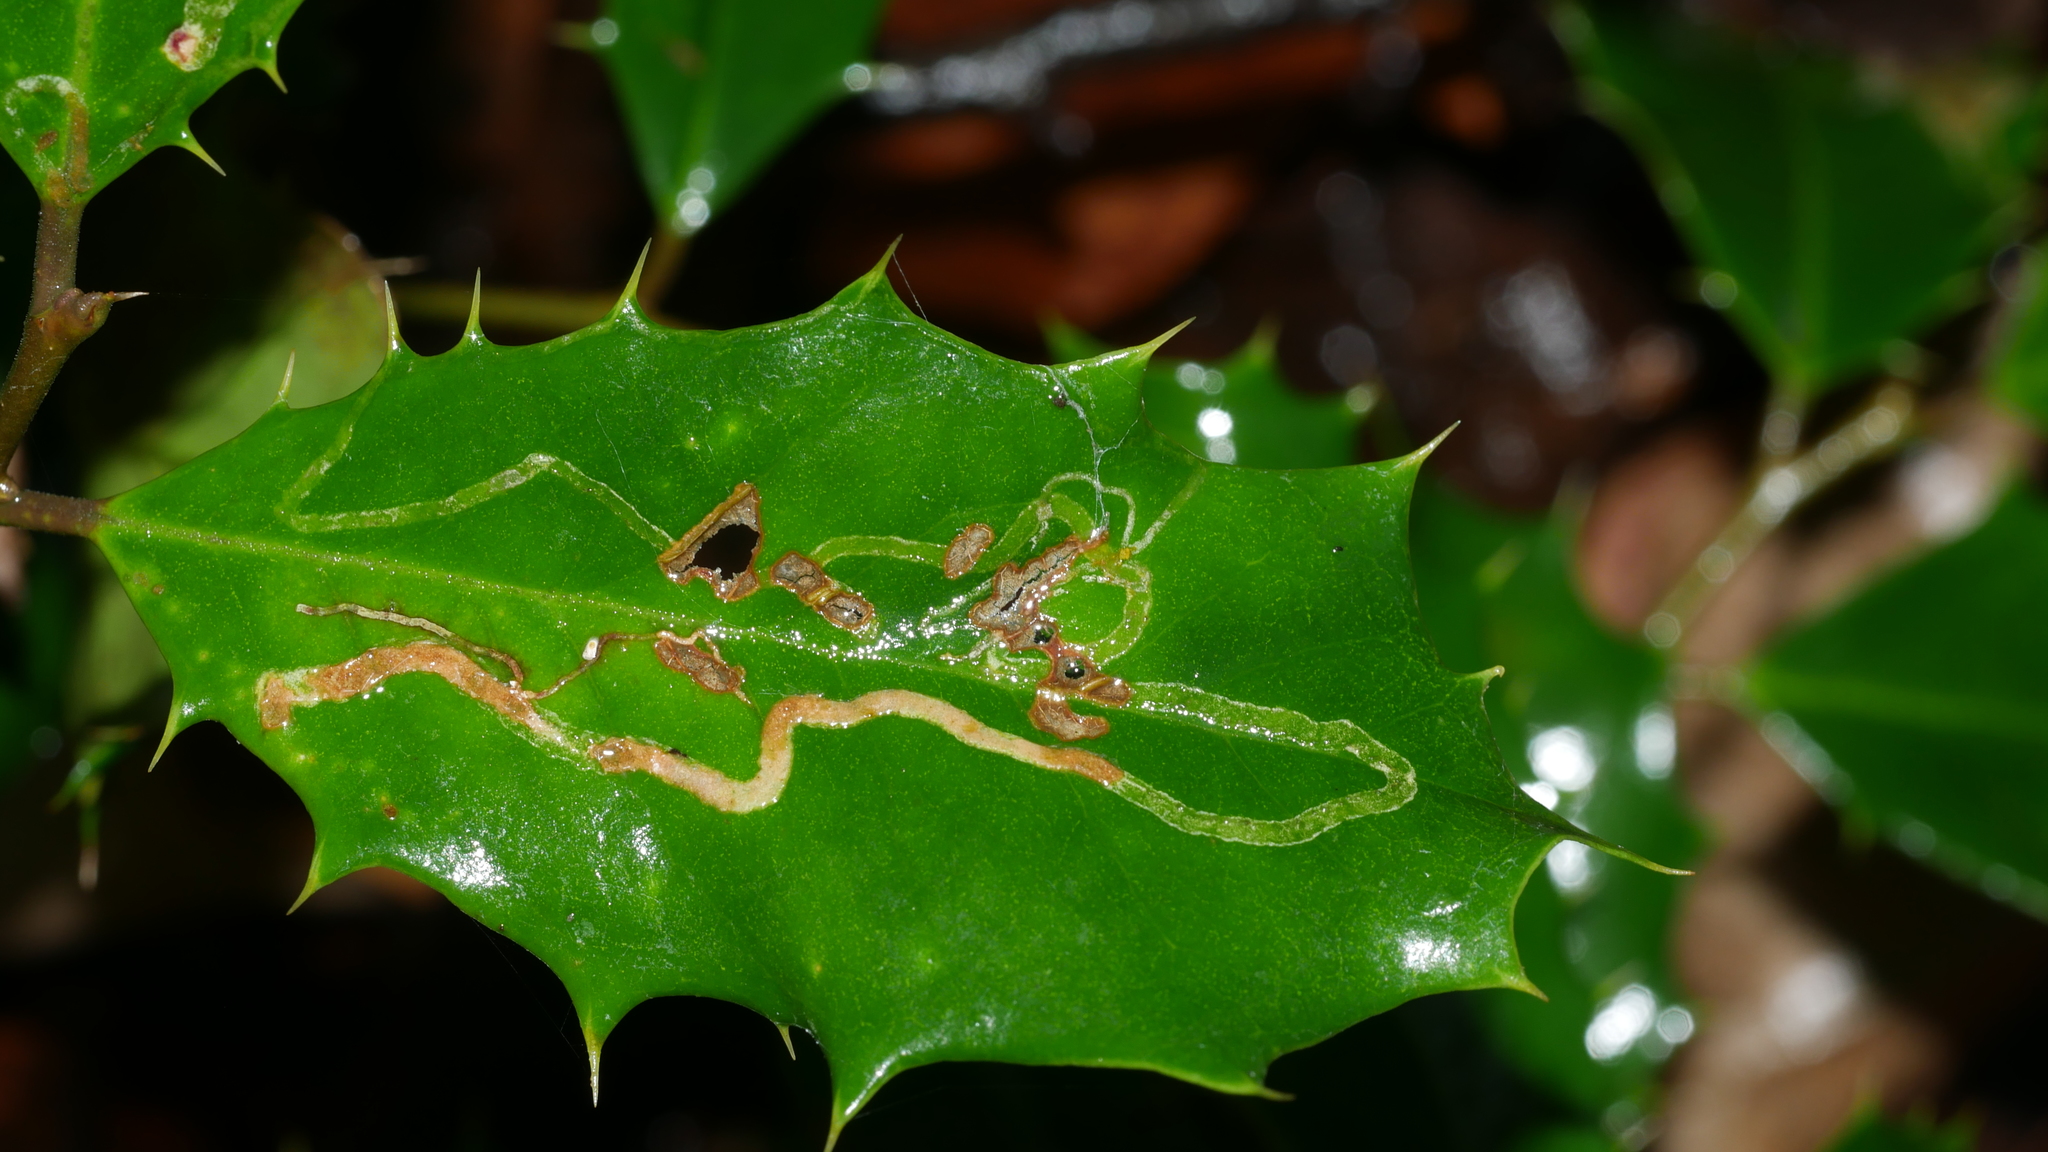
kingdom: Animalia
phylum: Arthropoda
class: Insecta
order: Diptera
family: Agromyzidae
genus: Phytomyza
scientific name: Phytomyza opacae
